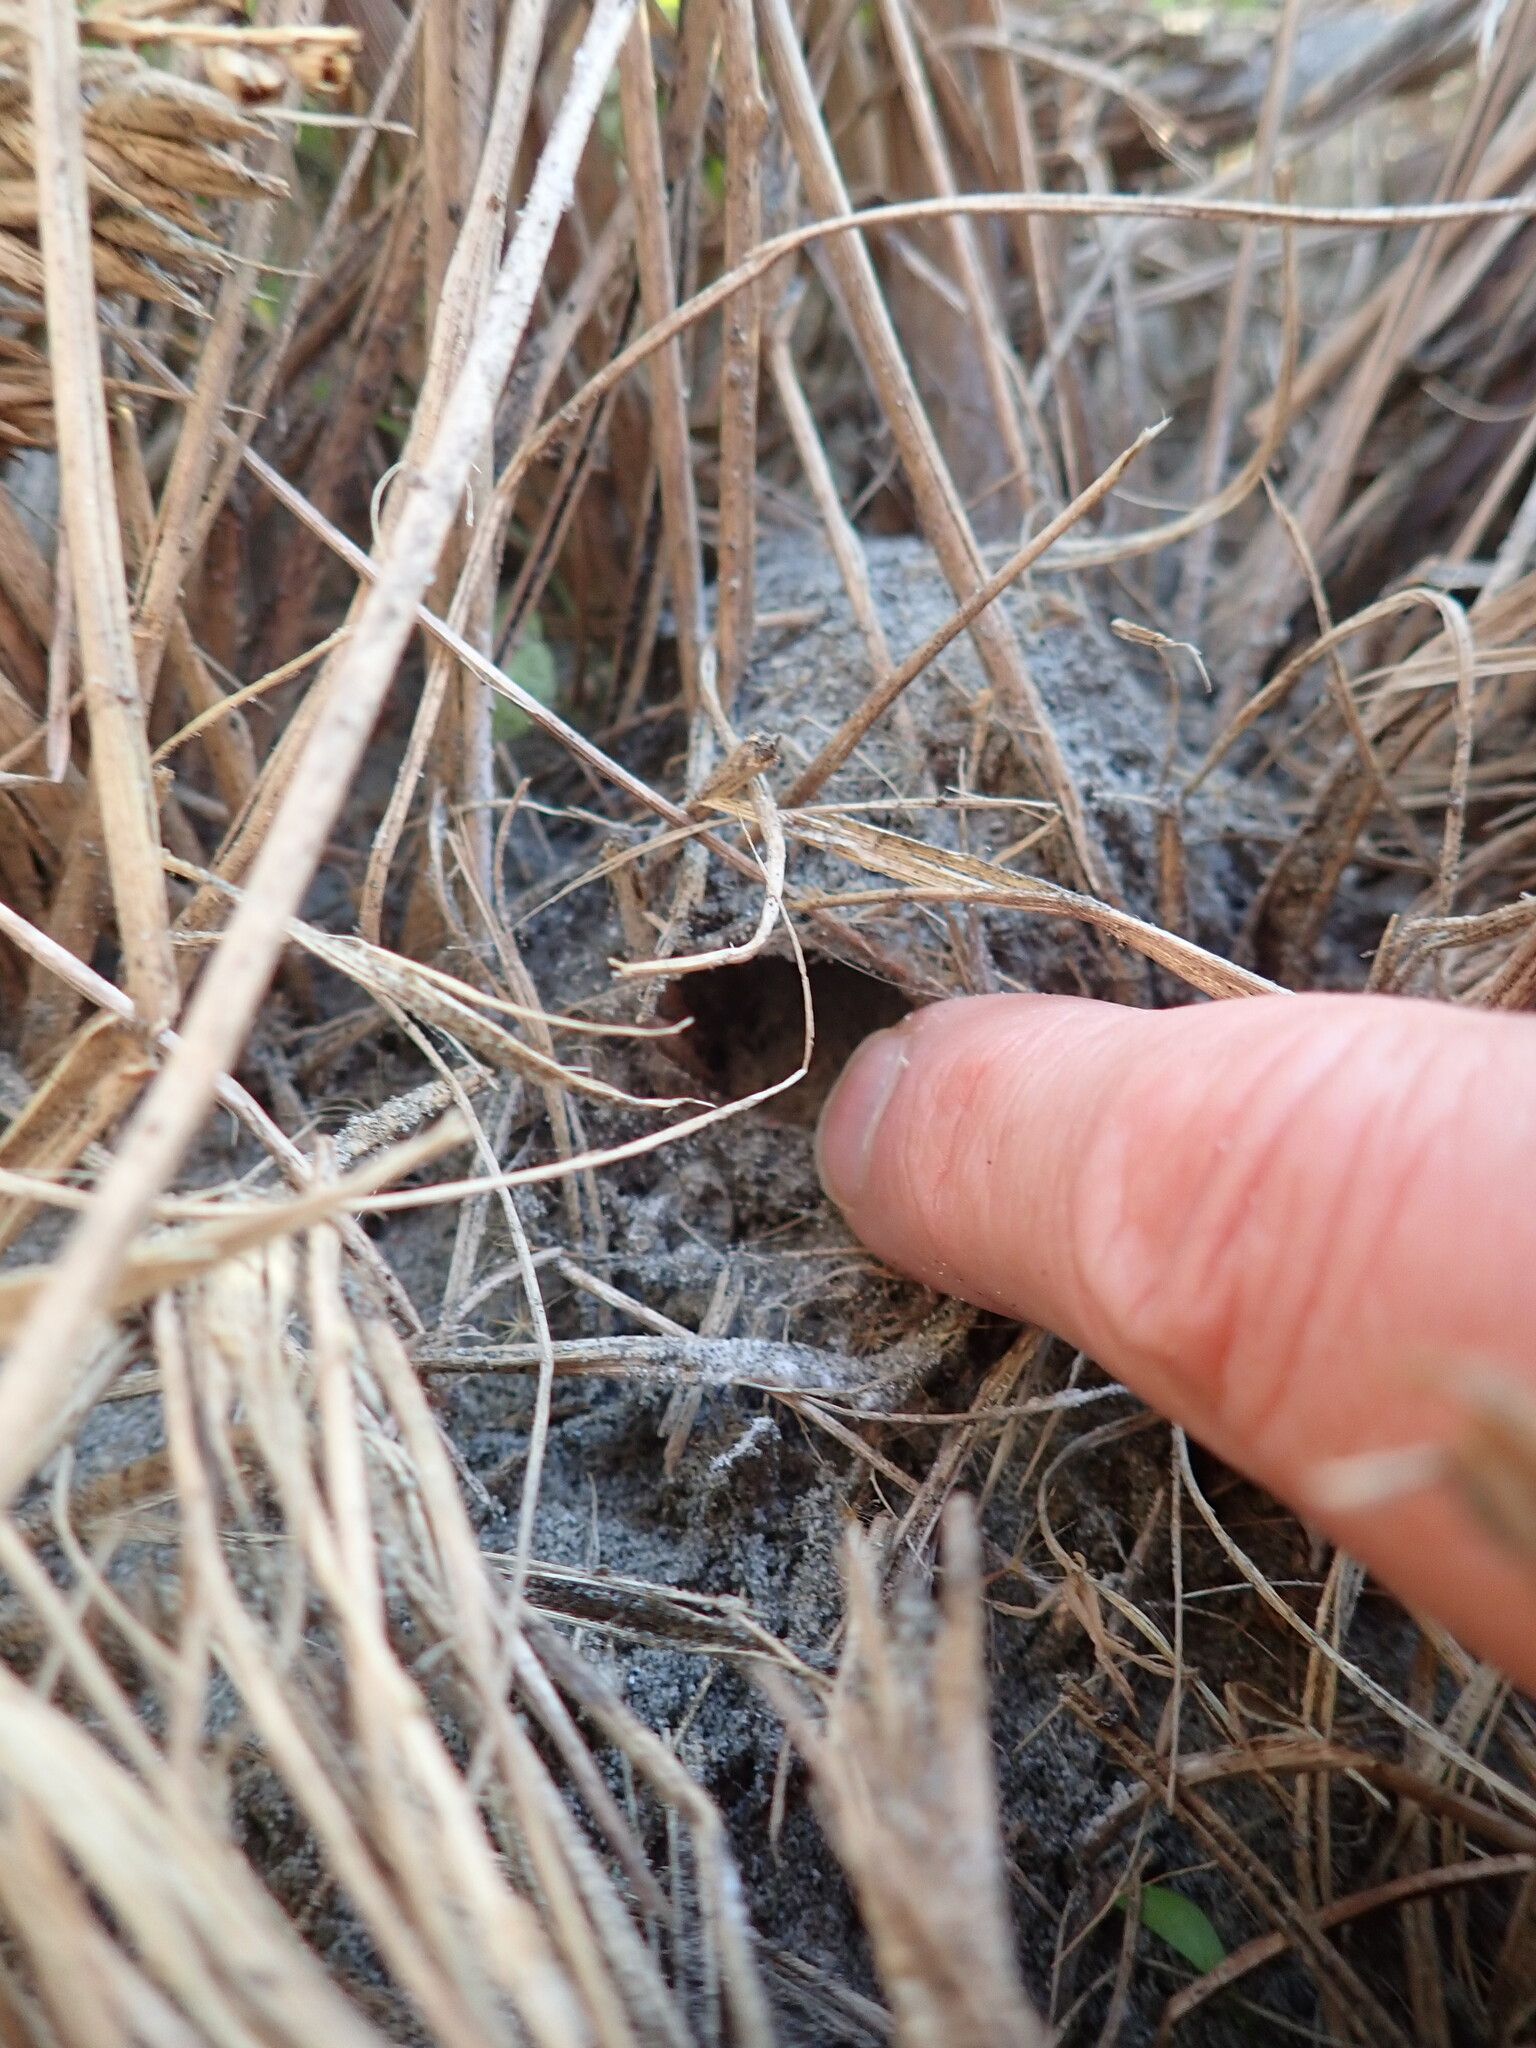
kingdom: Animalia
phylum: Arthropoda
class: Arachnida
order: Araneae
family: Thomisidae
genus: Sidymella
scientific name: Sidymella trapezia
